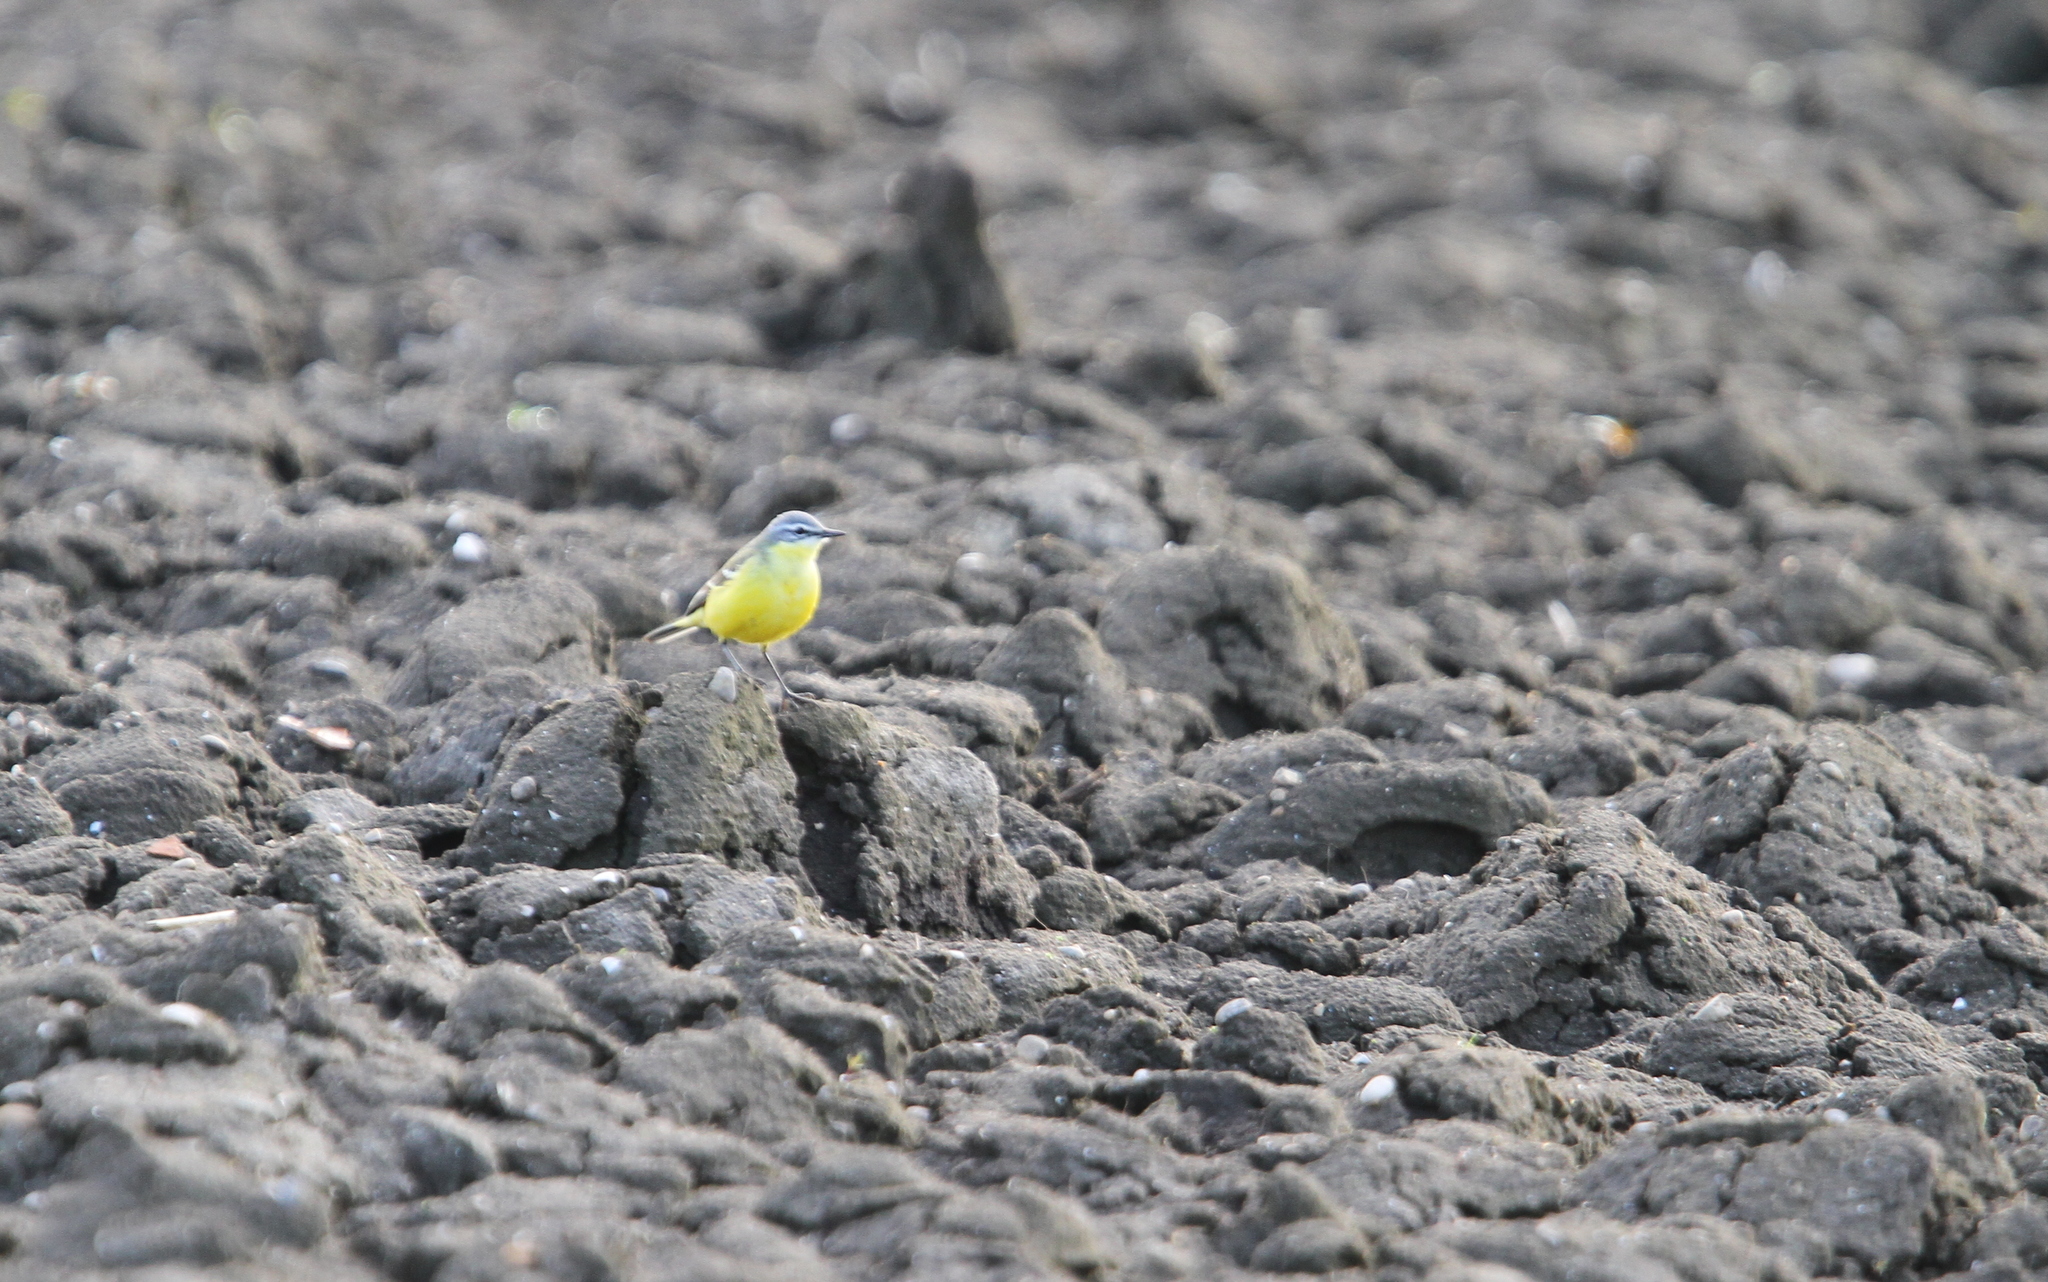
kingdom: Animalia
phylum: Chordata
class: Aves
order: Passeriformes
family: Motacillidae
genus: Motacilla
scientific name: Motacilla flava
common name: Western yellow wagtail
